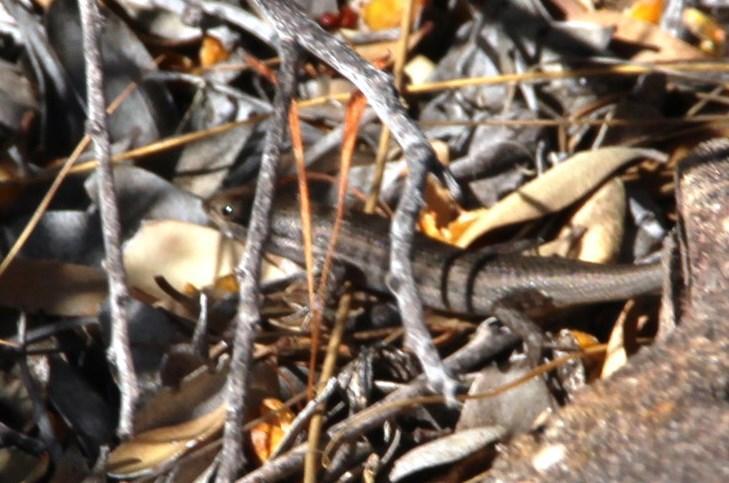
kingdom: Animalia
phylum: Chordata
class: Squamata
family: Scincidae
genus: Trachylepis
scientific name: Trachylepis variegata
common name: Variegated skink
